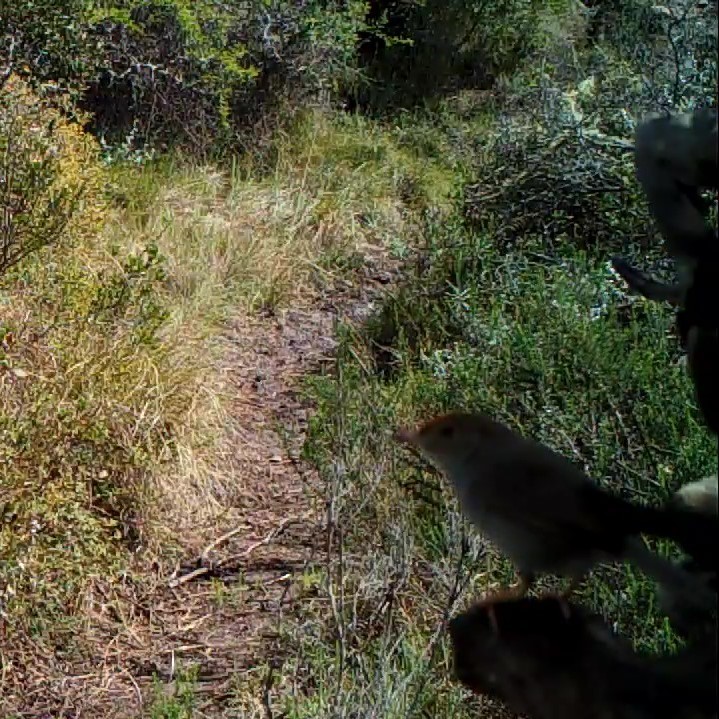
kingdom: Animalia
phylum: Chordata
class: Aves
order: Passeriformes
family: Cisticolidae
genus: Cisticola
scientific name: Cisticola fulvicapilla
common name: Neddicky
